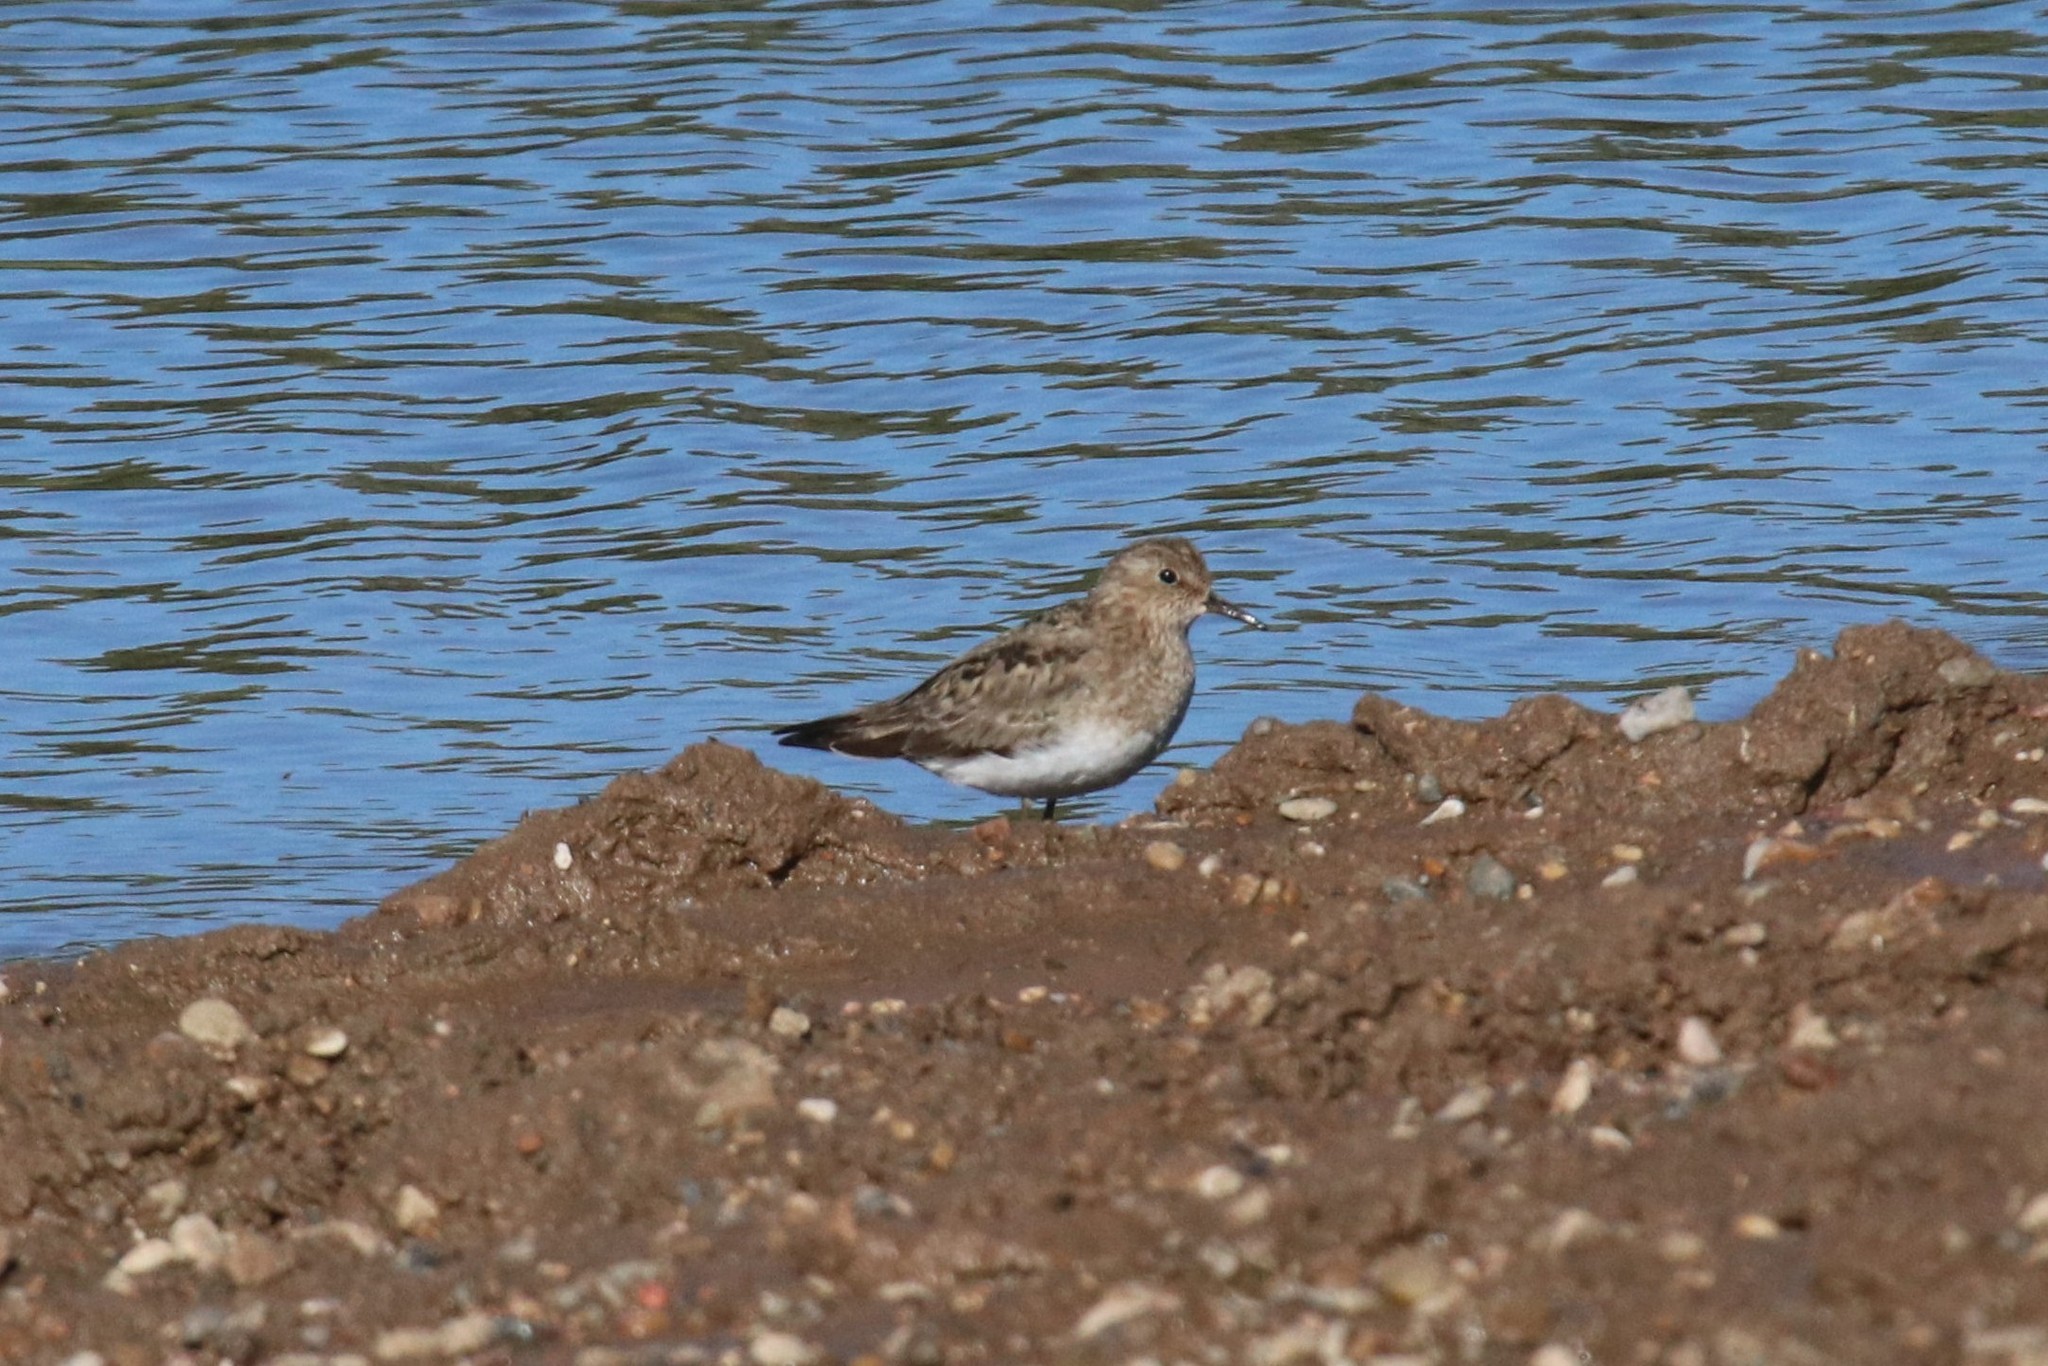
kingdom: Animalia
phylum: Chordata
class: Aves
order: Charadriiformes
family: Scolopacidae
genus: Calidris
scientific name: Calidris temminckii
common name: Temminck's stint
